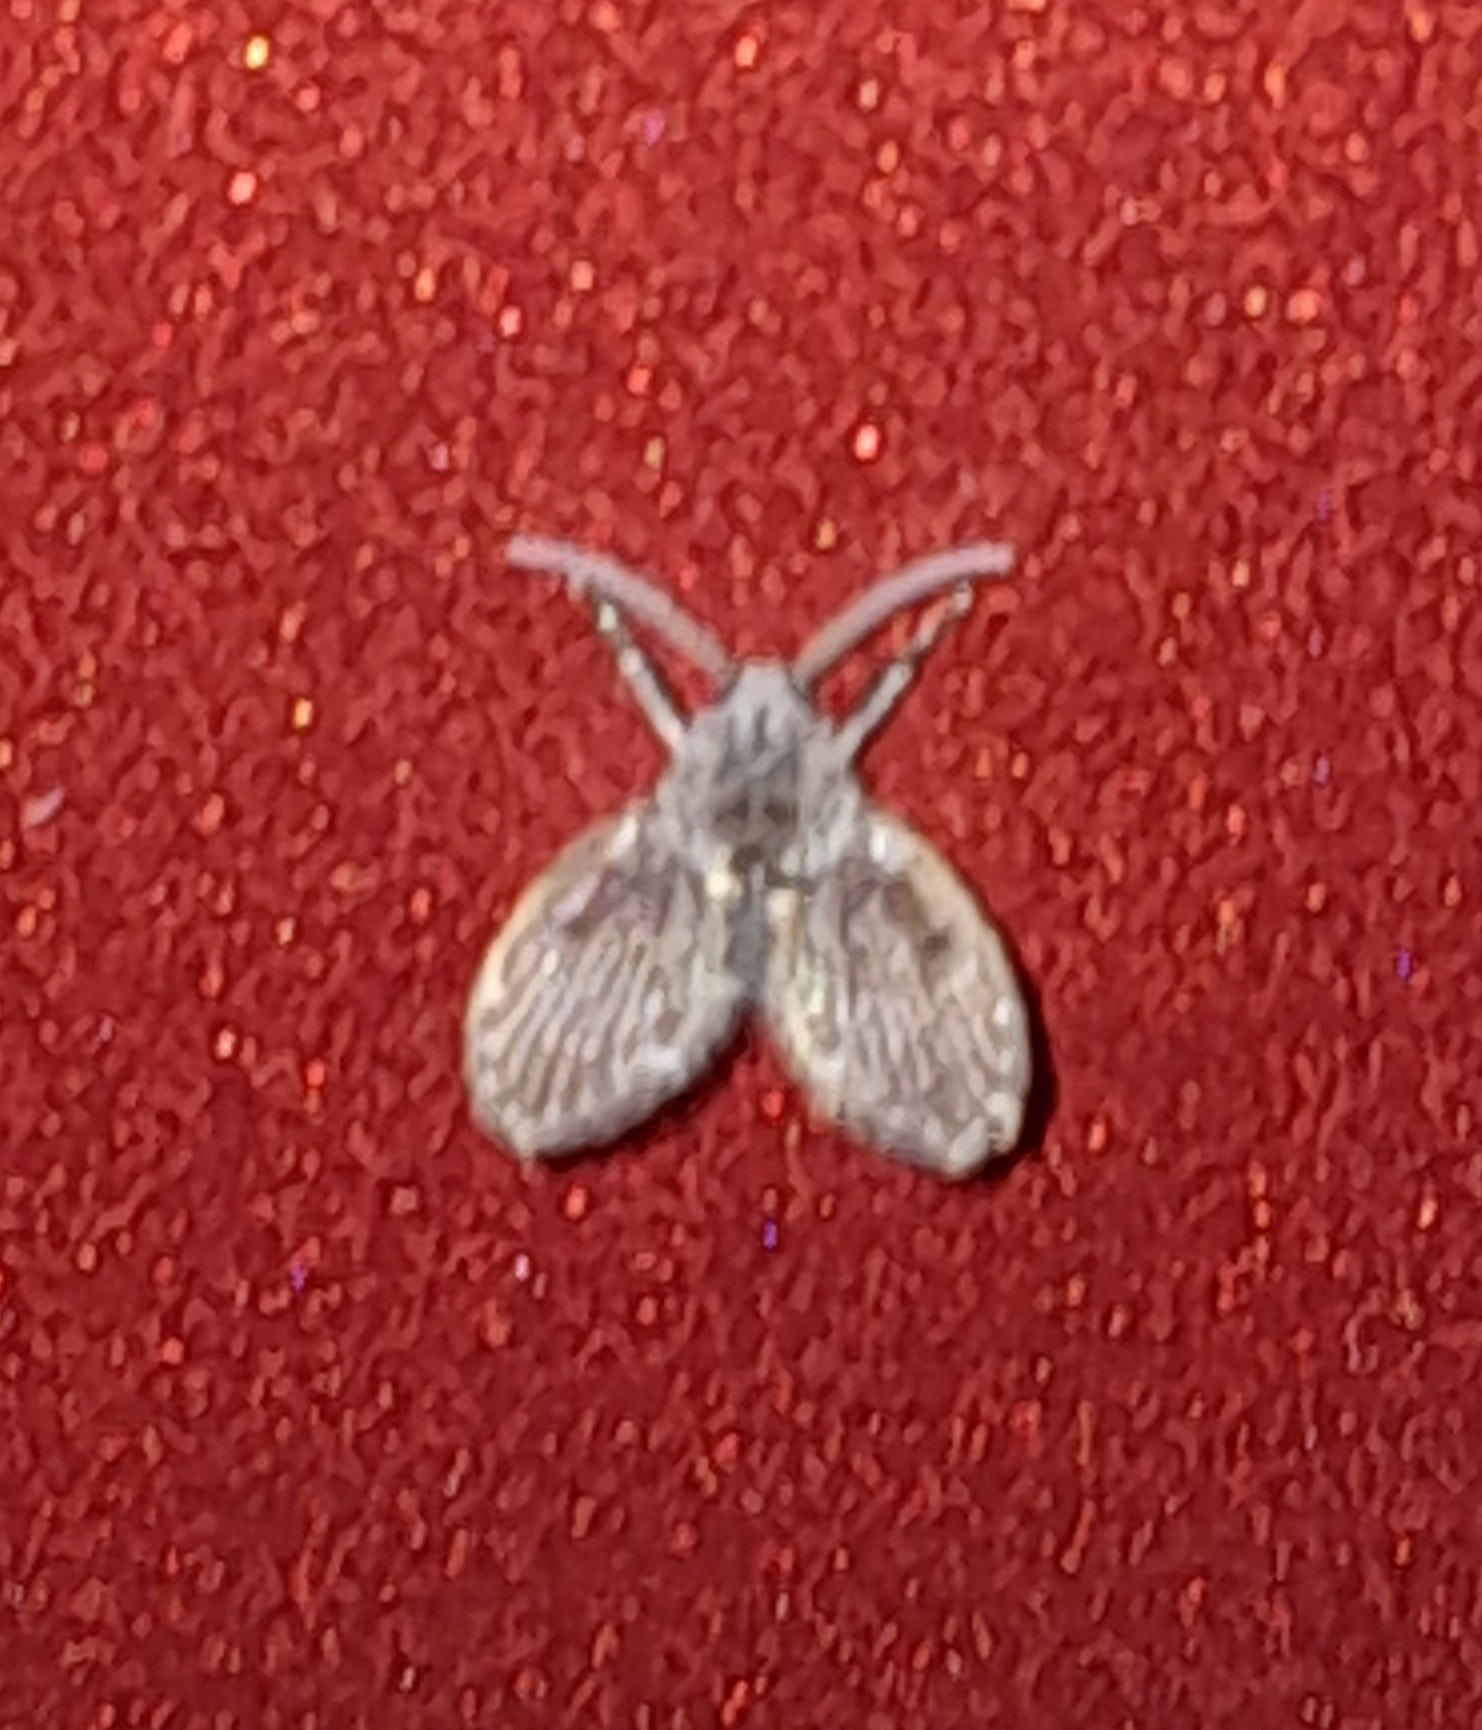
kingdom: Animalia
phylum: Arthropoda
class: Insecta
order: Diptera
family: Psychodidae
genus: Clogmia
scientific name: Clogmia albipunctatus
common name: White-spotted moth fly
